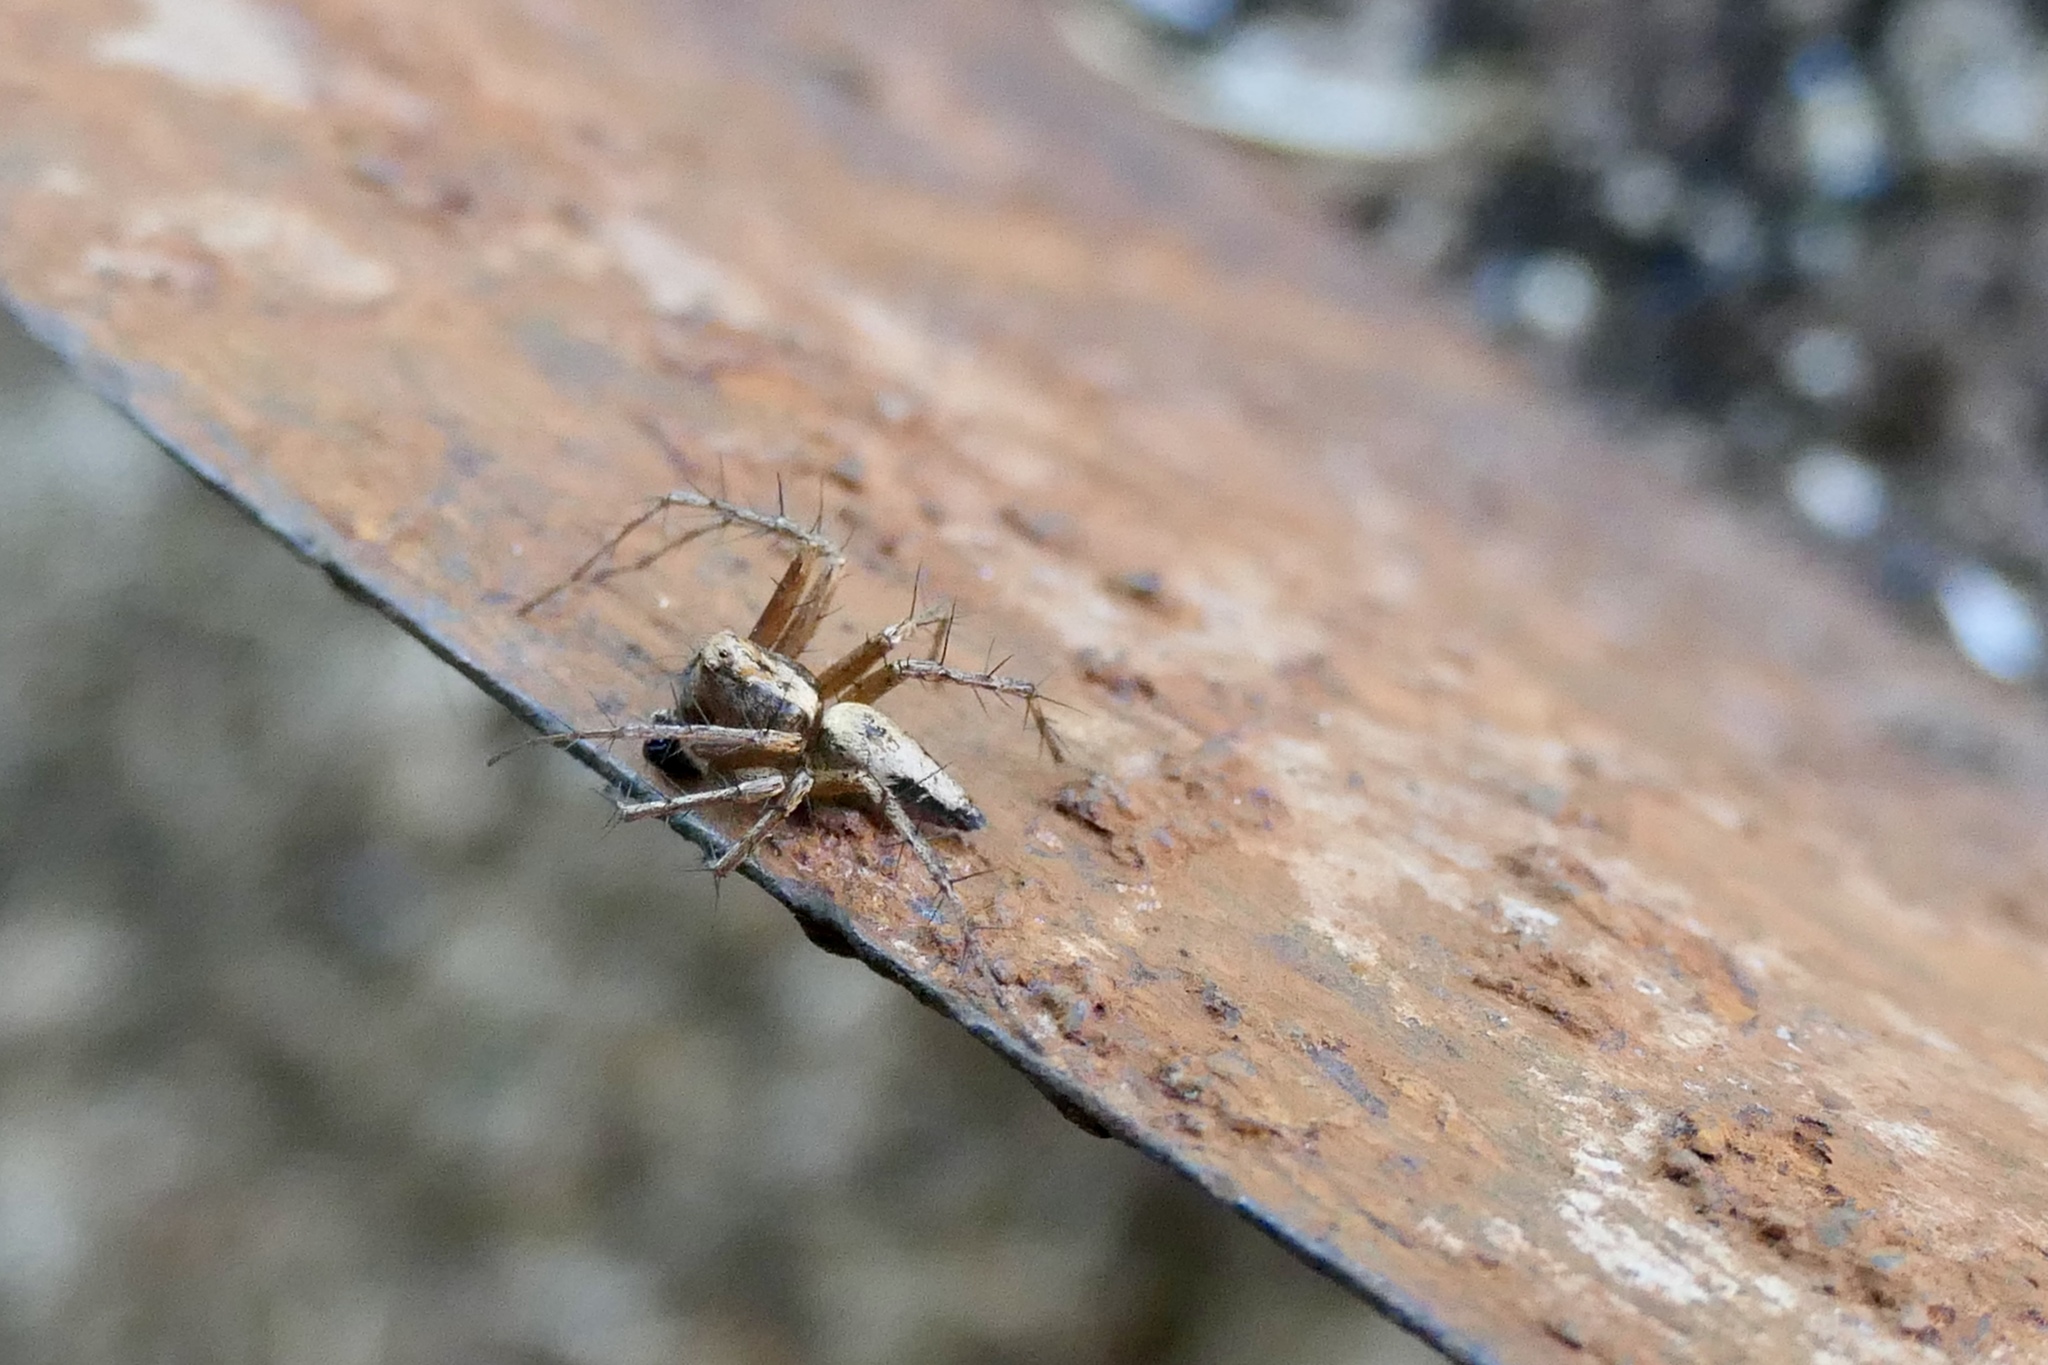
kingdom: Animalia
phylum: Arthropoda
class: Arachnida
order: Araneae
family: Oxyopidae
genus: Oxyopes
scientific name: Oxyopes scalaris
